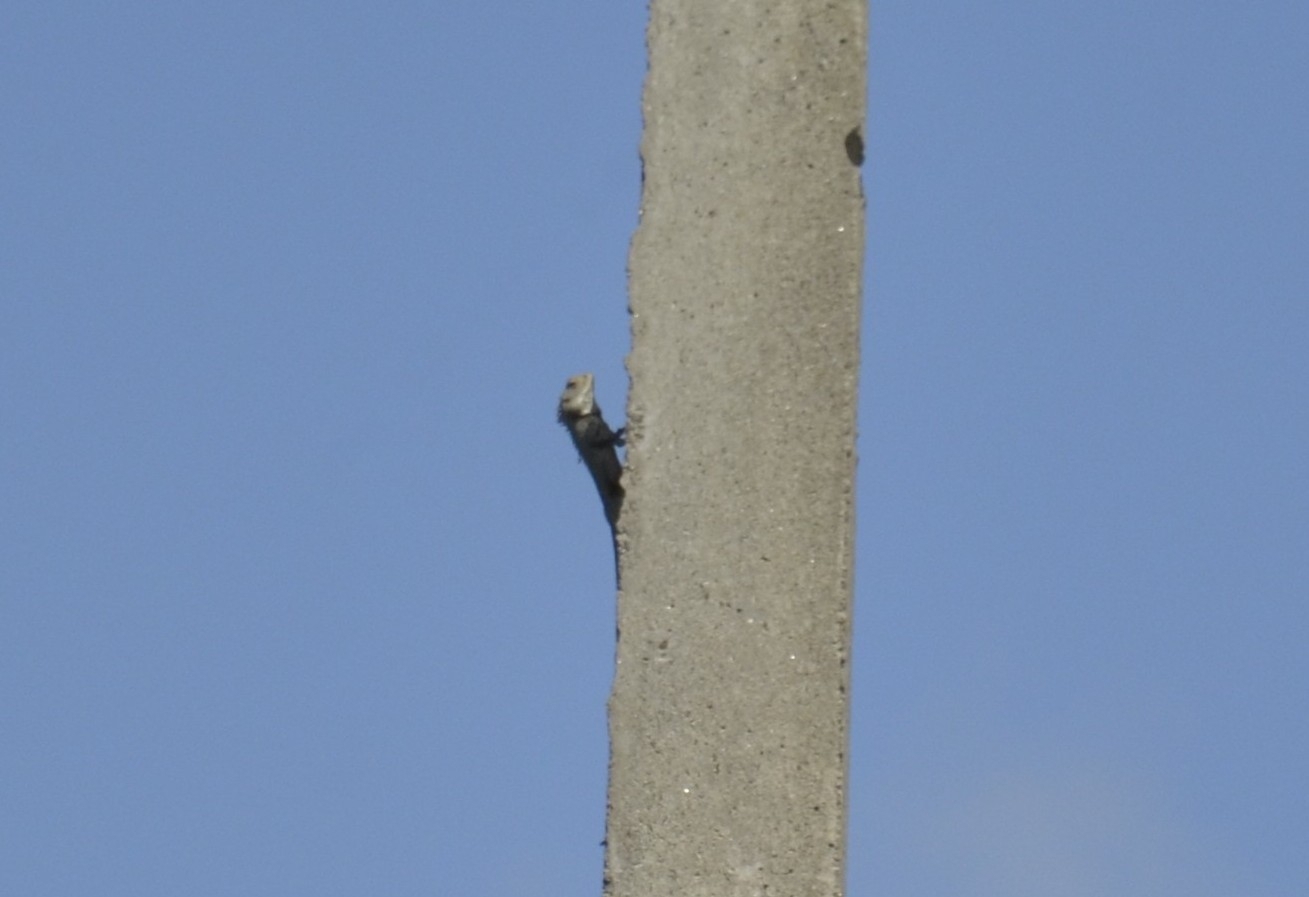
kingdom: Animalia
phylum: Chordata
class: Squamata
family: Agamidae
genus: Calotes
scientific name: Calotes versicolor
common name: Oriental garden lizard
